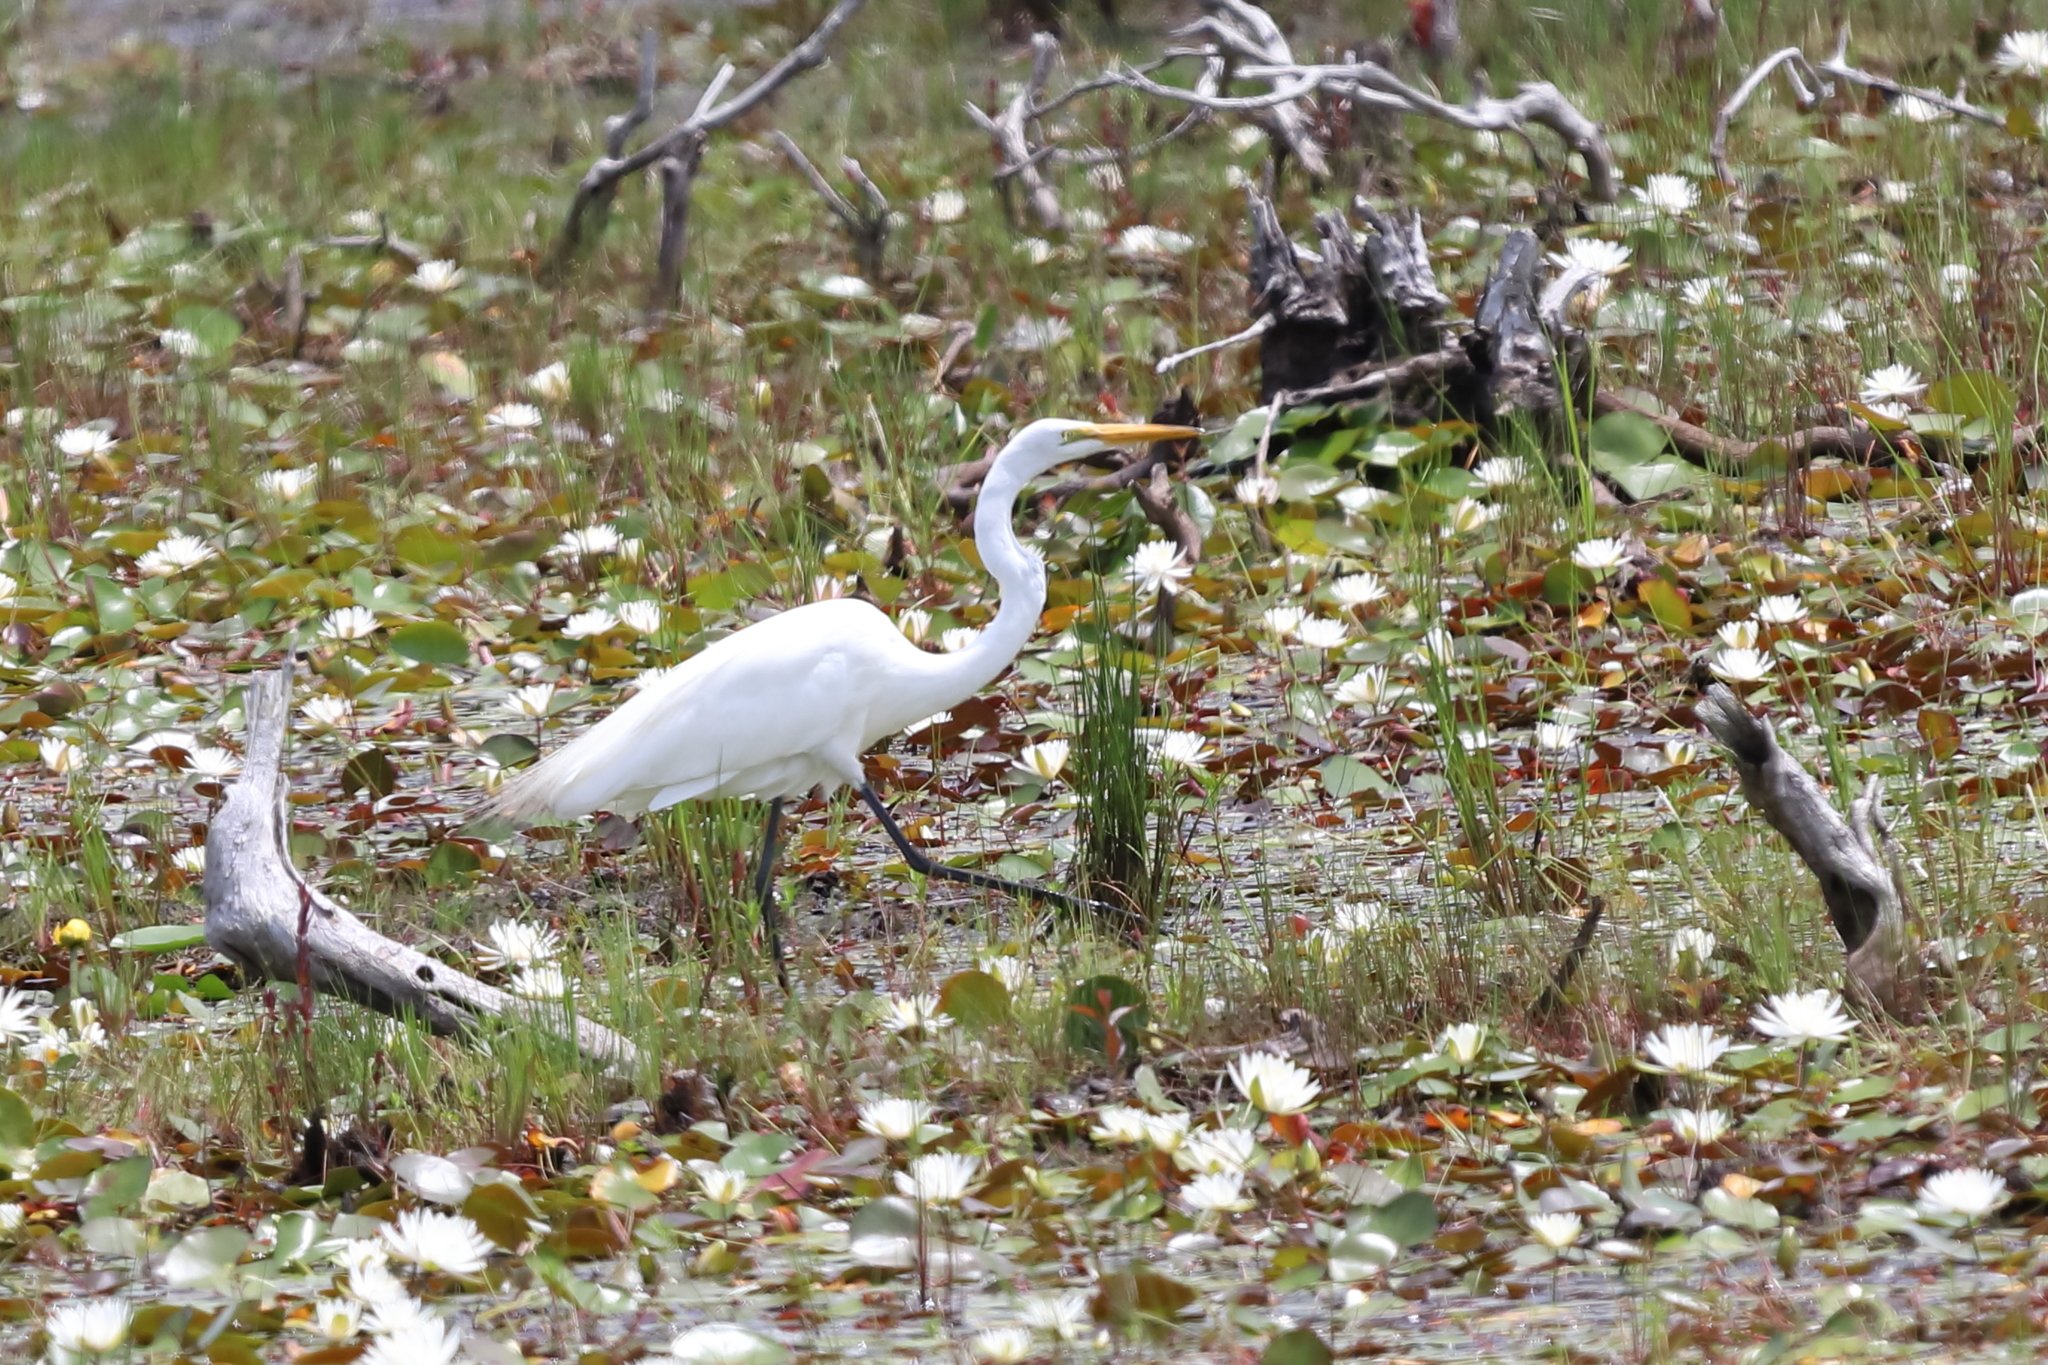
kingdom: Animalia
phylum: Chordata
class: Aves
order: Pelecaniformes
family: Ardeidae
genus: Ardea
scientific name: Ardea alba
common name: Great egret
